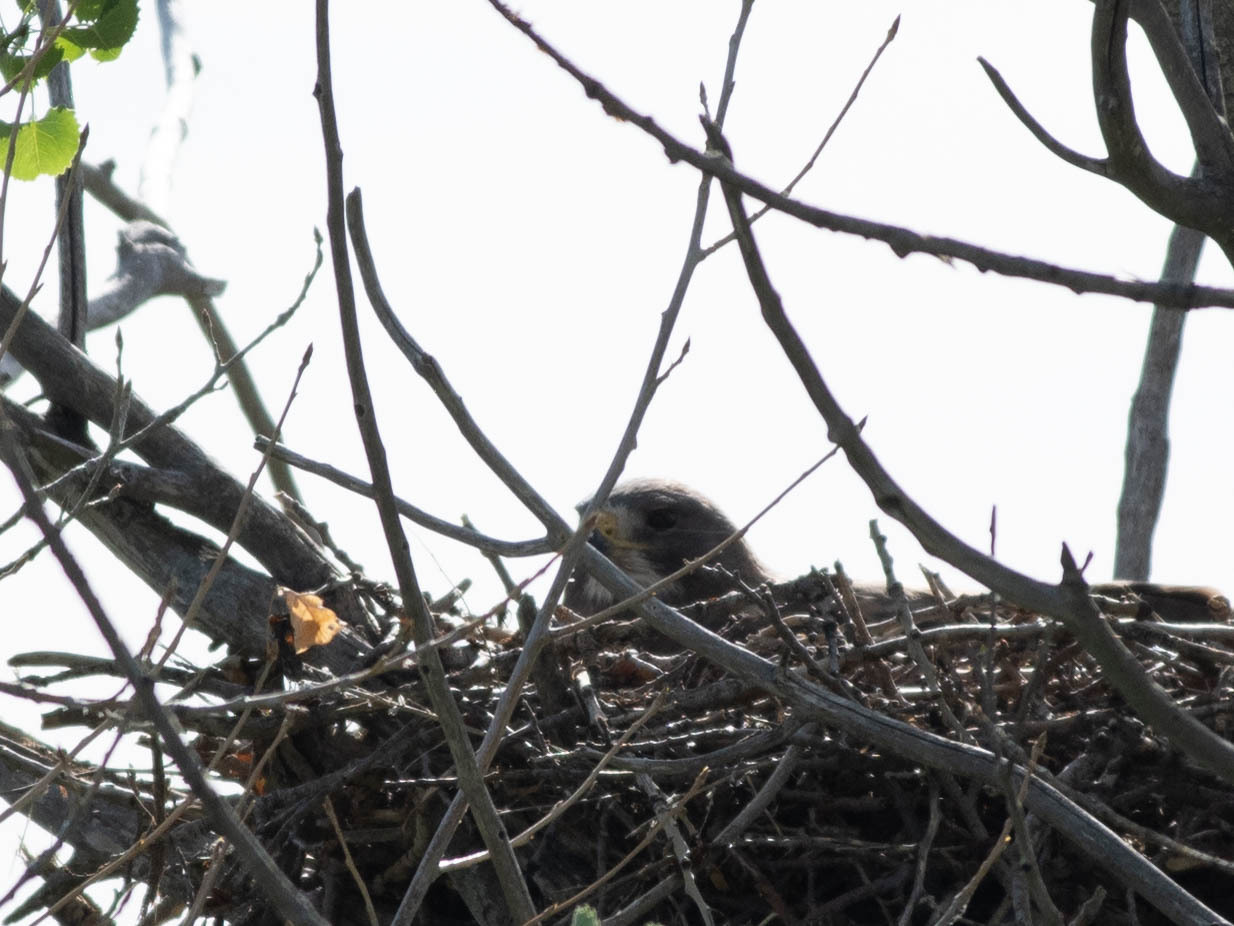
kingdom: Animalia
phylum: Chordata
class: Aves
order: Accipitriformes
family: Accipitridae
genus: Buteo
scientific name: Buteo swainsoni
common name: Swainson's hawk
